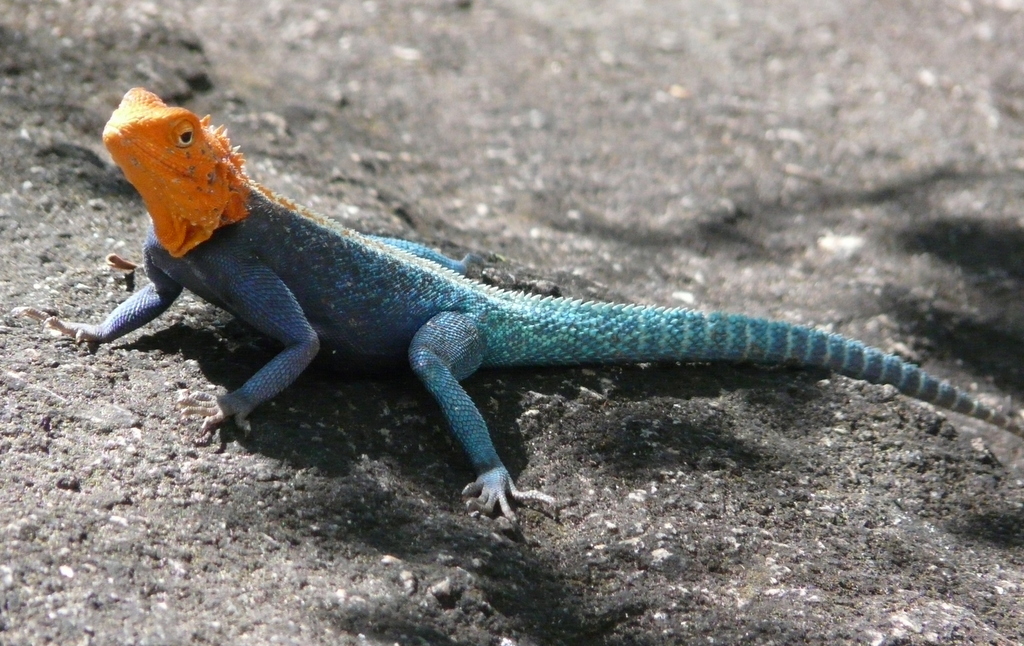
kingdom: Animalia
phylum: Chordata
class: Squamata
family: Agamidae
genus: Agama
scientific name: Agama kirkii
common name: Kirk's rock agama
